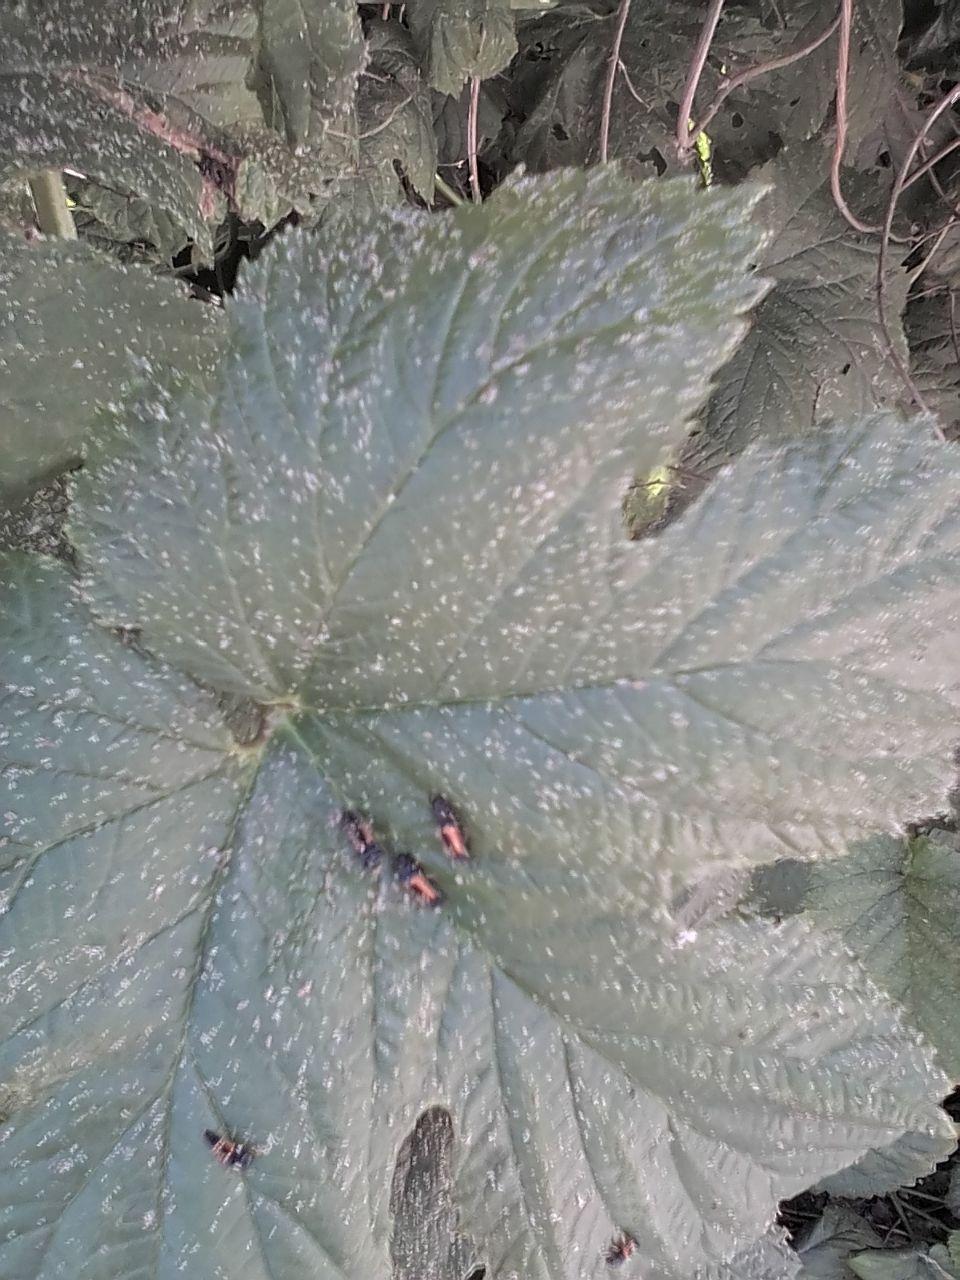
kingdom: Animalia
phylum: Arthropoda
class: Insecta
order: Coleoptera
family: Coccinellidae
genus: Harmonia
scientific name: Harmonia axyridis
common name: Harlequin ladybird
